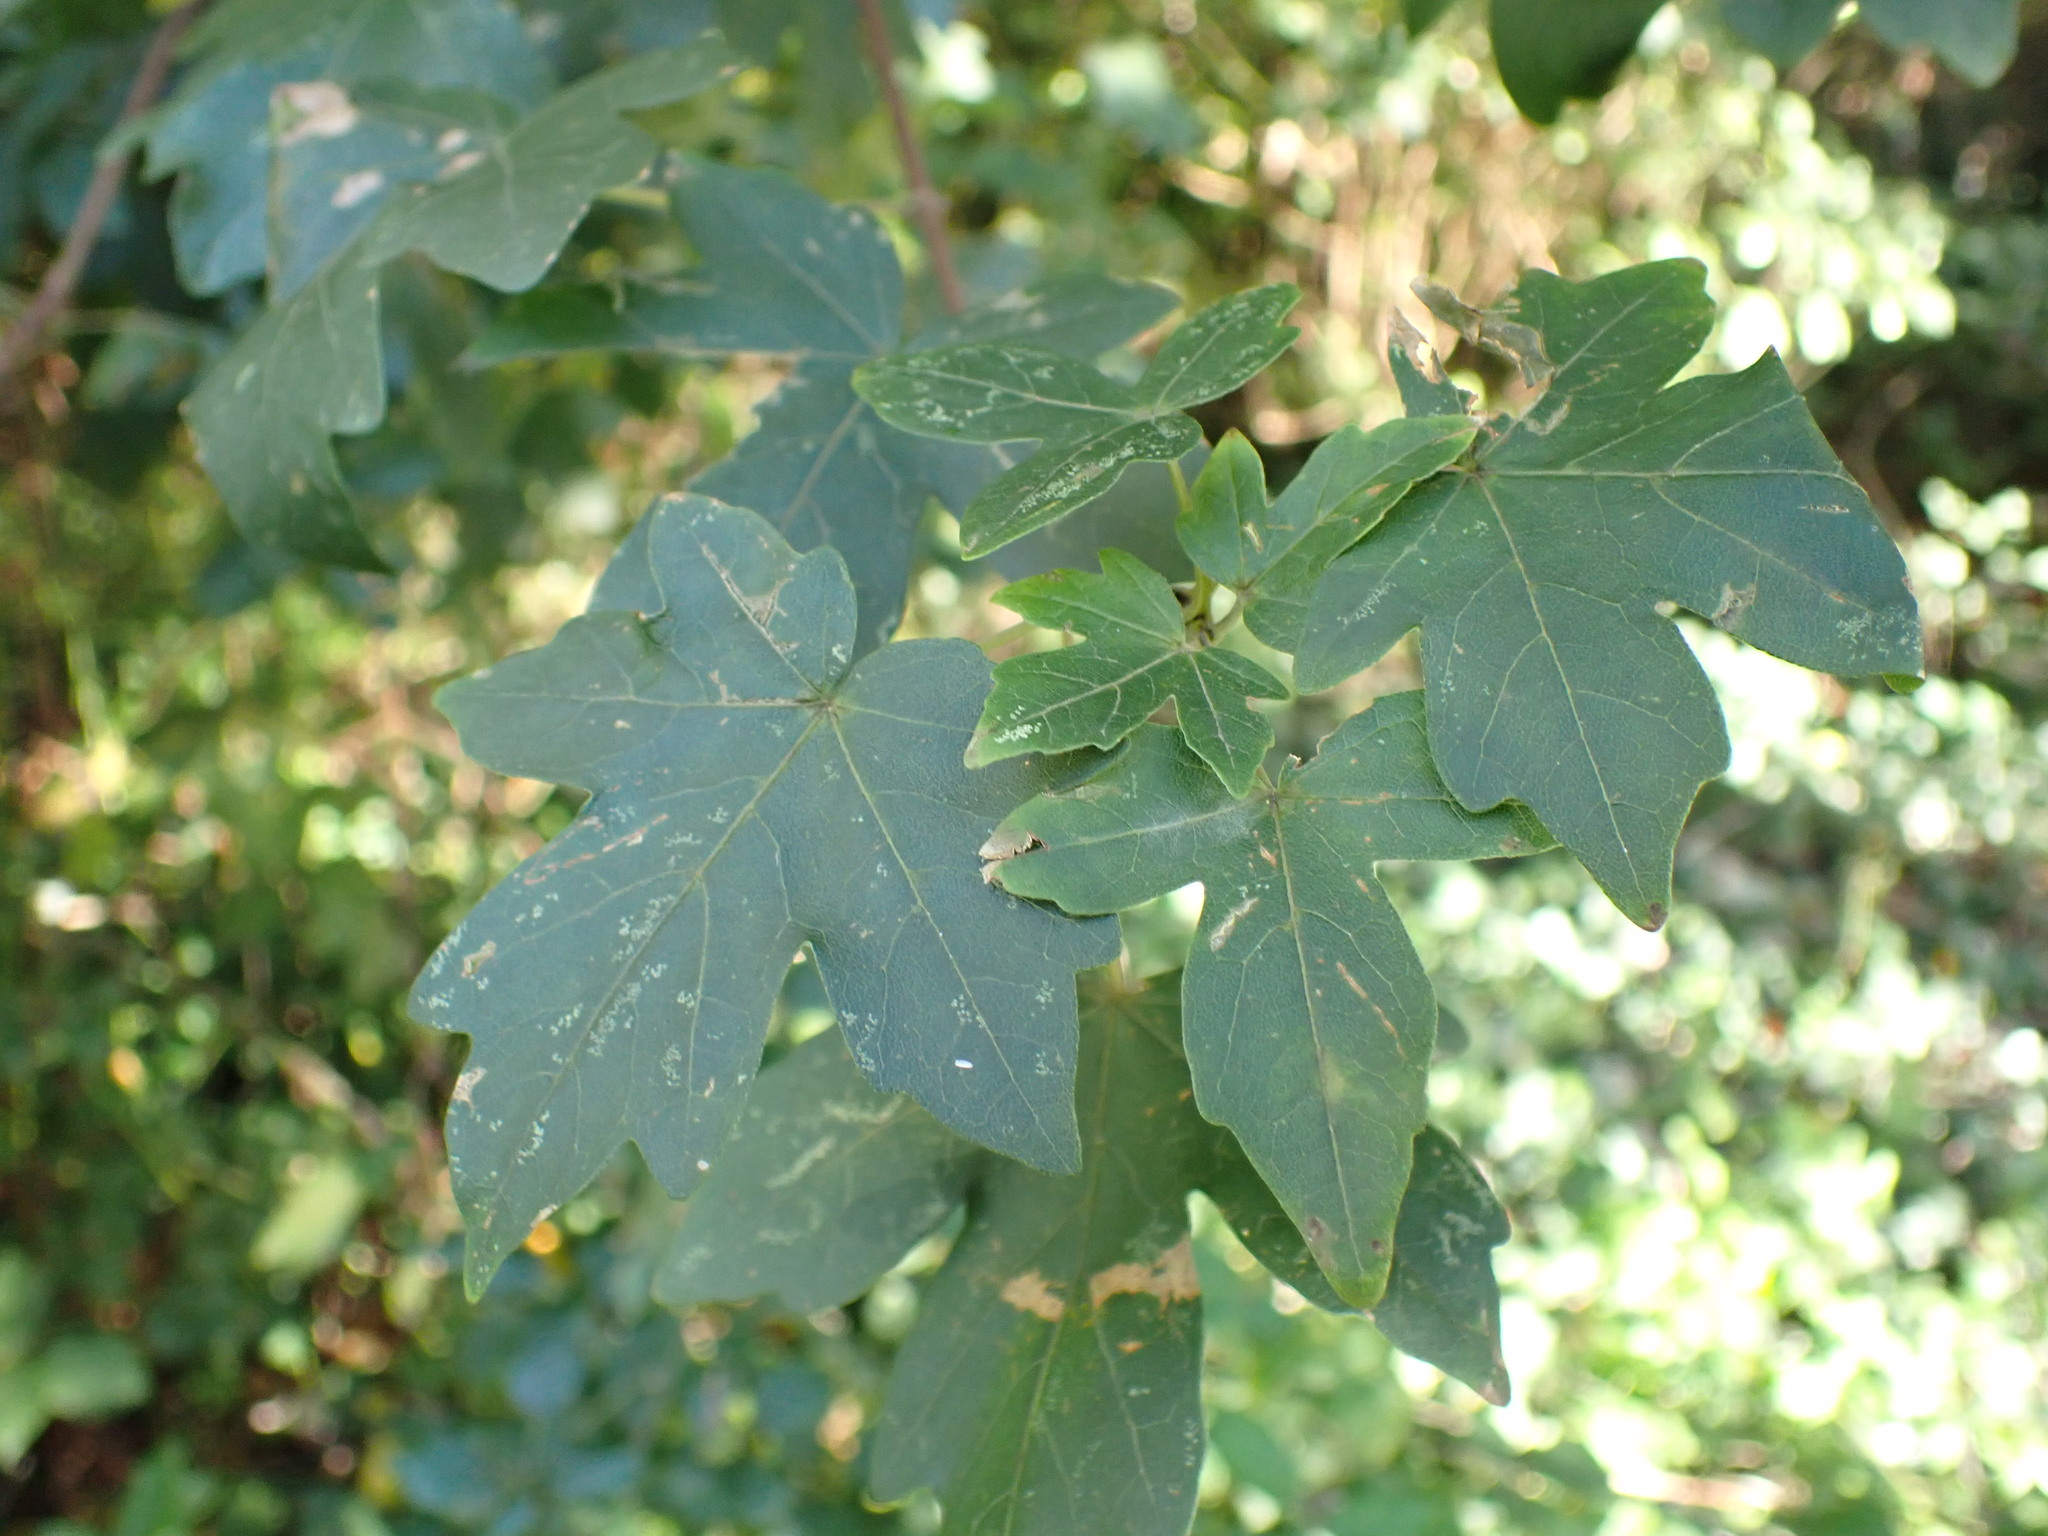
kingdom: Plantae
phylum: Tracheophyta
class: Magnoliopsida
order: Sapindales
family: Sapindaceae
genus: Acer
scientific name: Acer campestre
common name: Field maple
